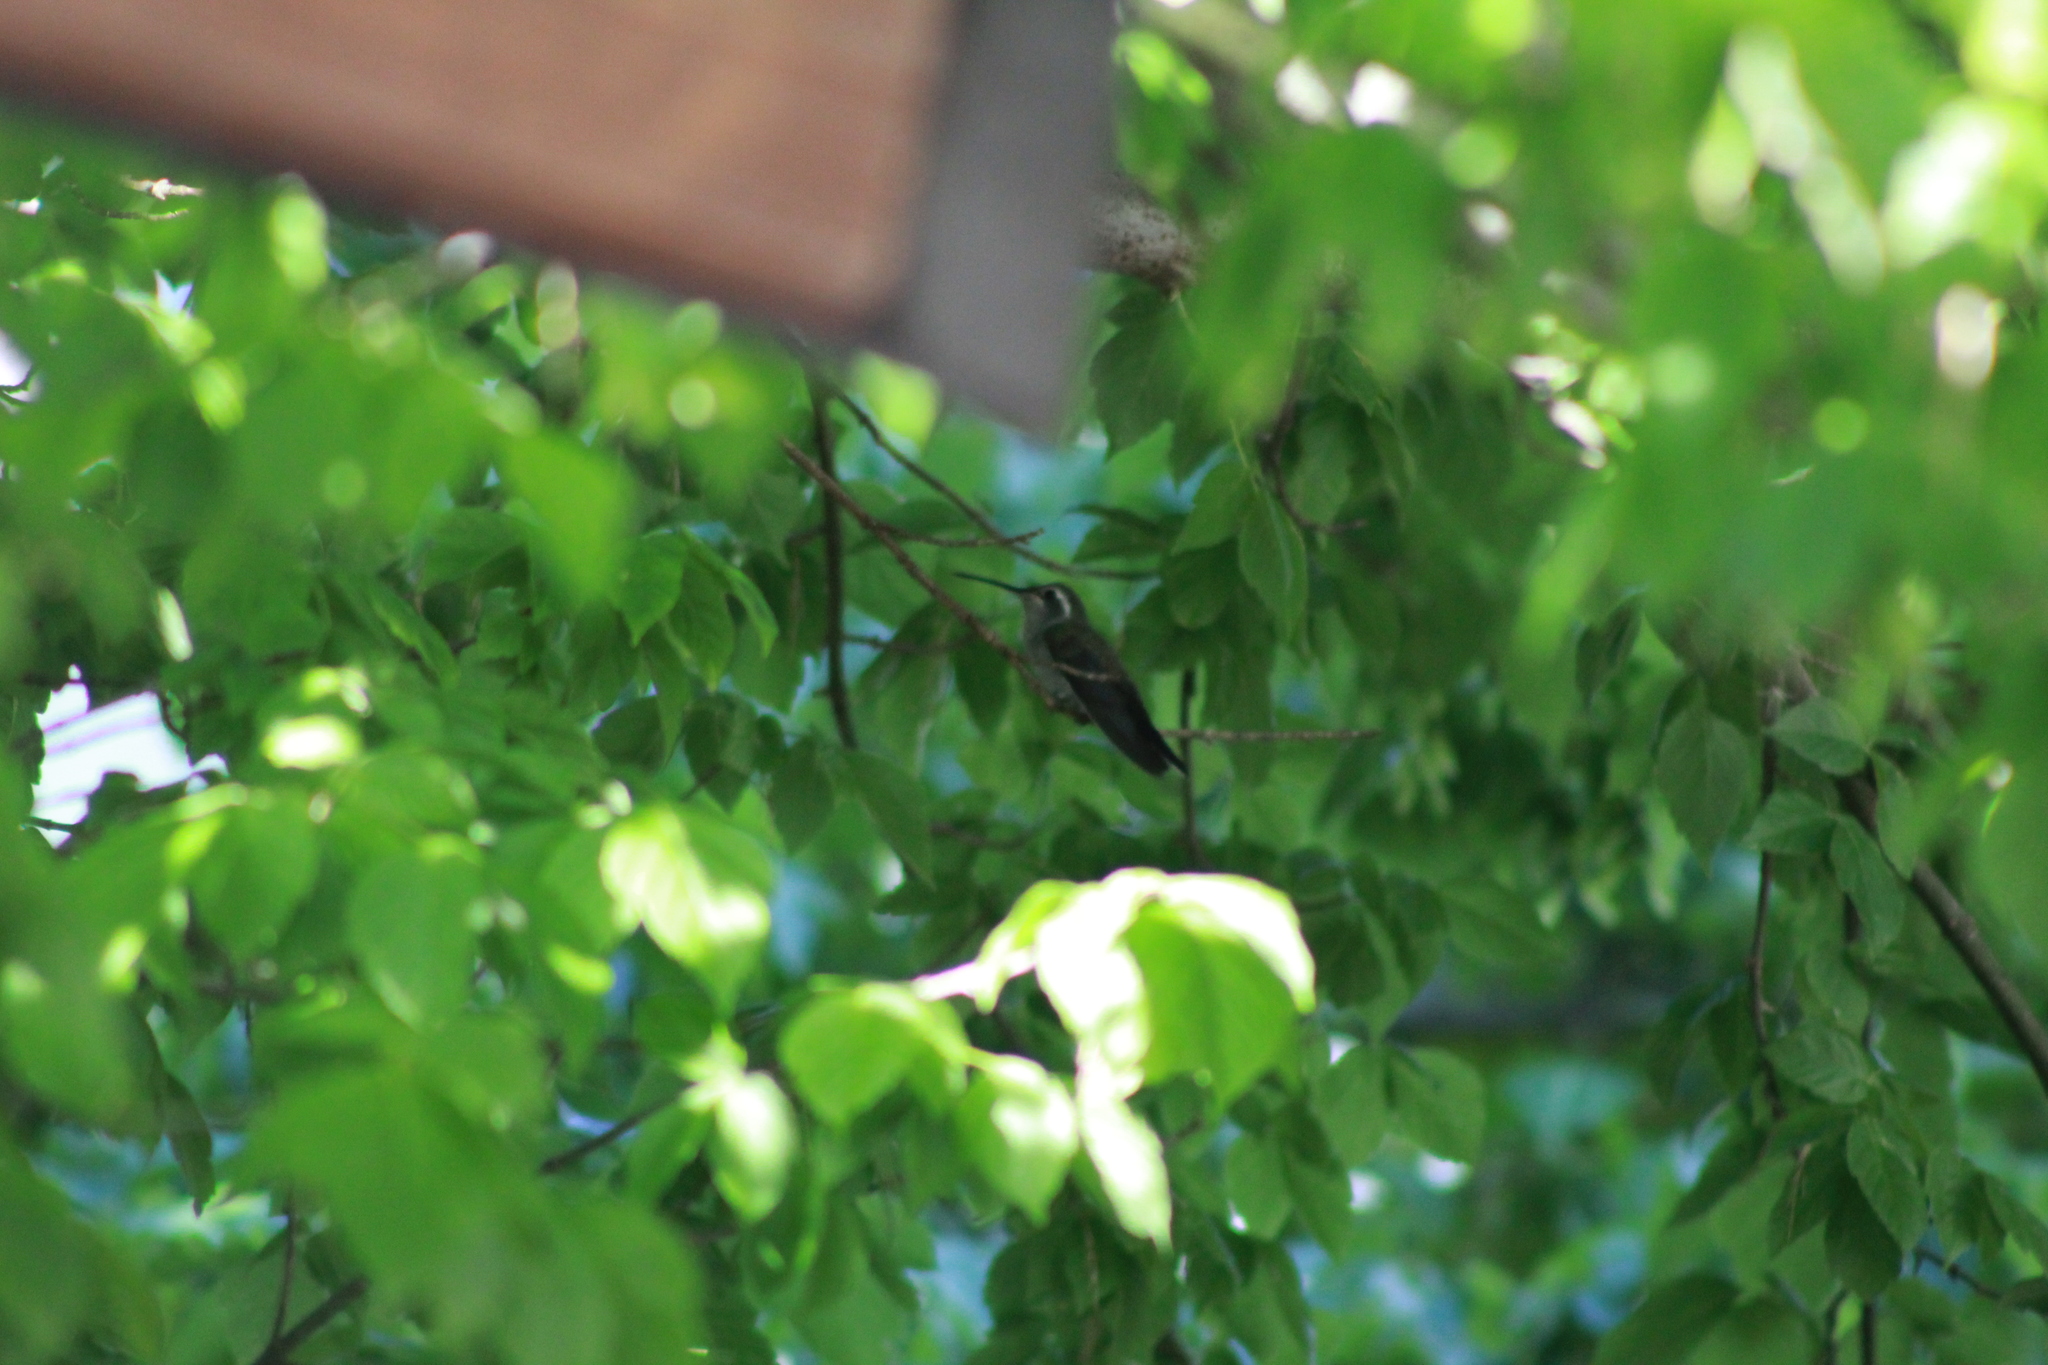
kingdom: Animalia
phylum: Chordata
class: Aves
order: Apodiformes
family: Trochilidae
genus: Lampornis
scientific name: Lampornis clemenciae
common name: Blue-throated mountaingem
